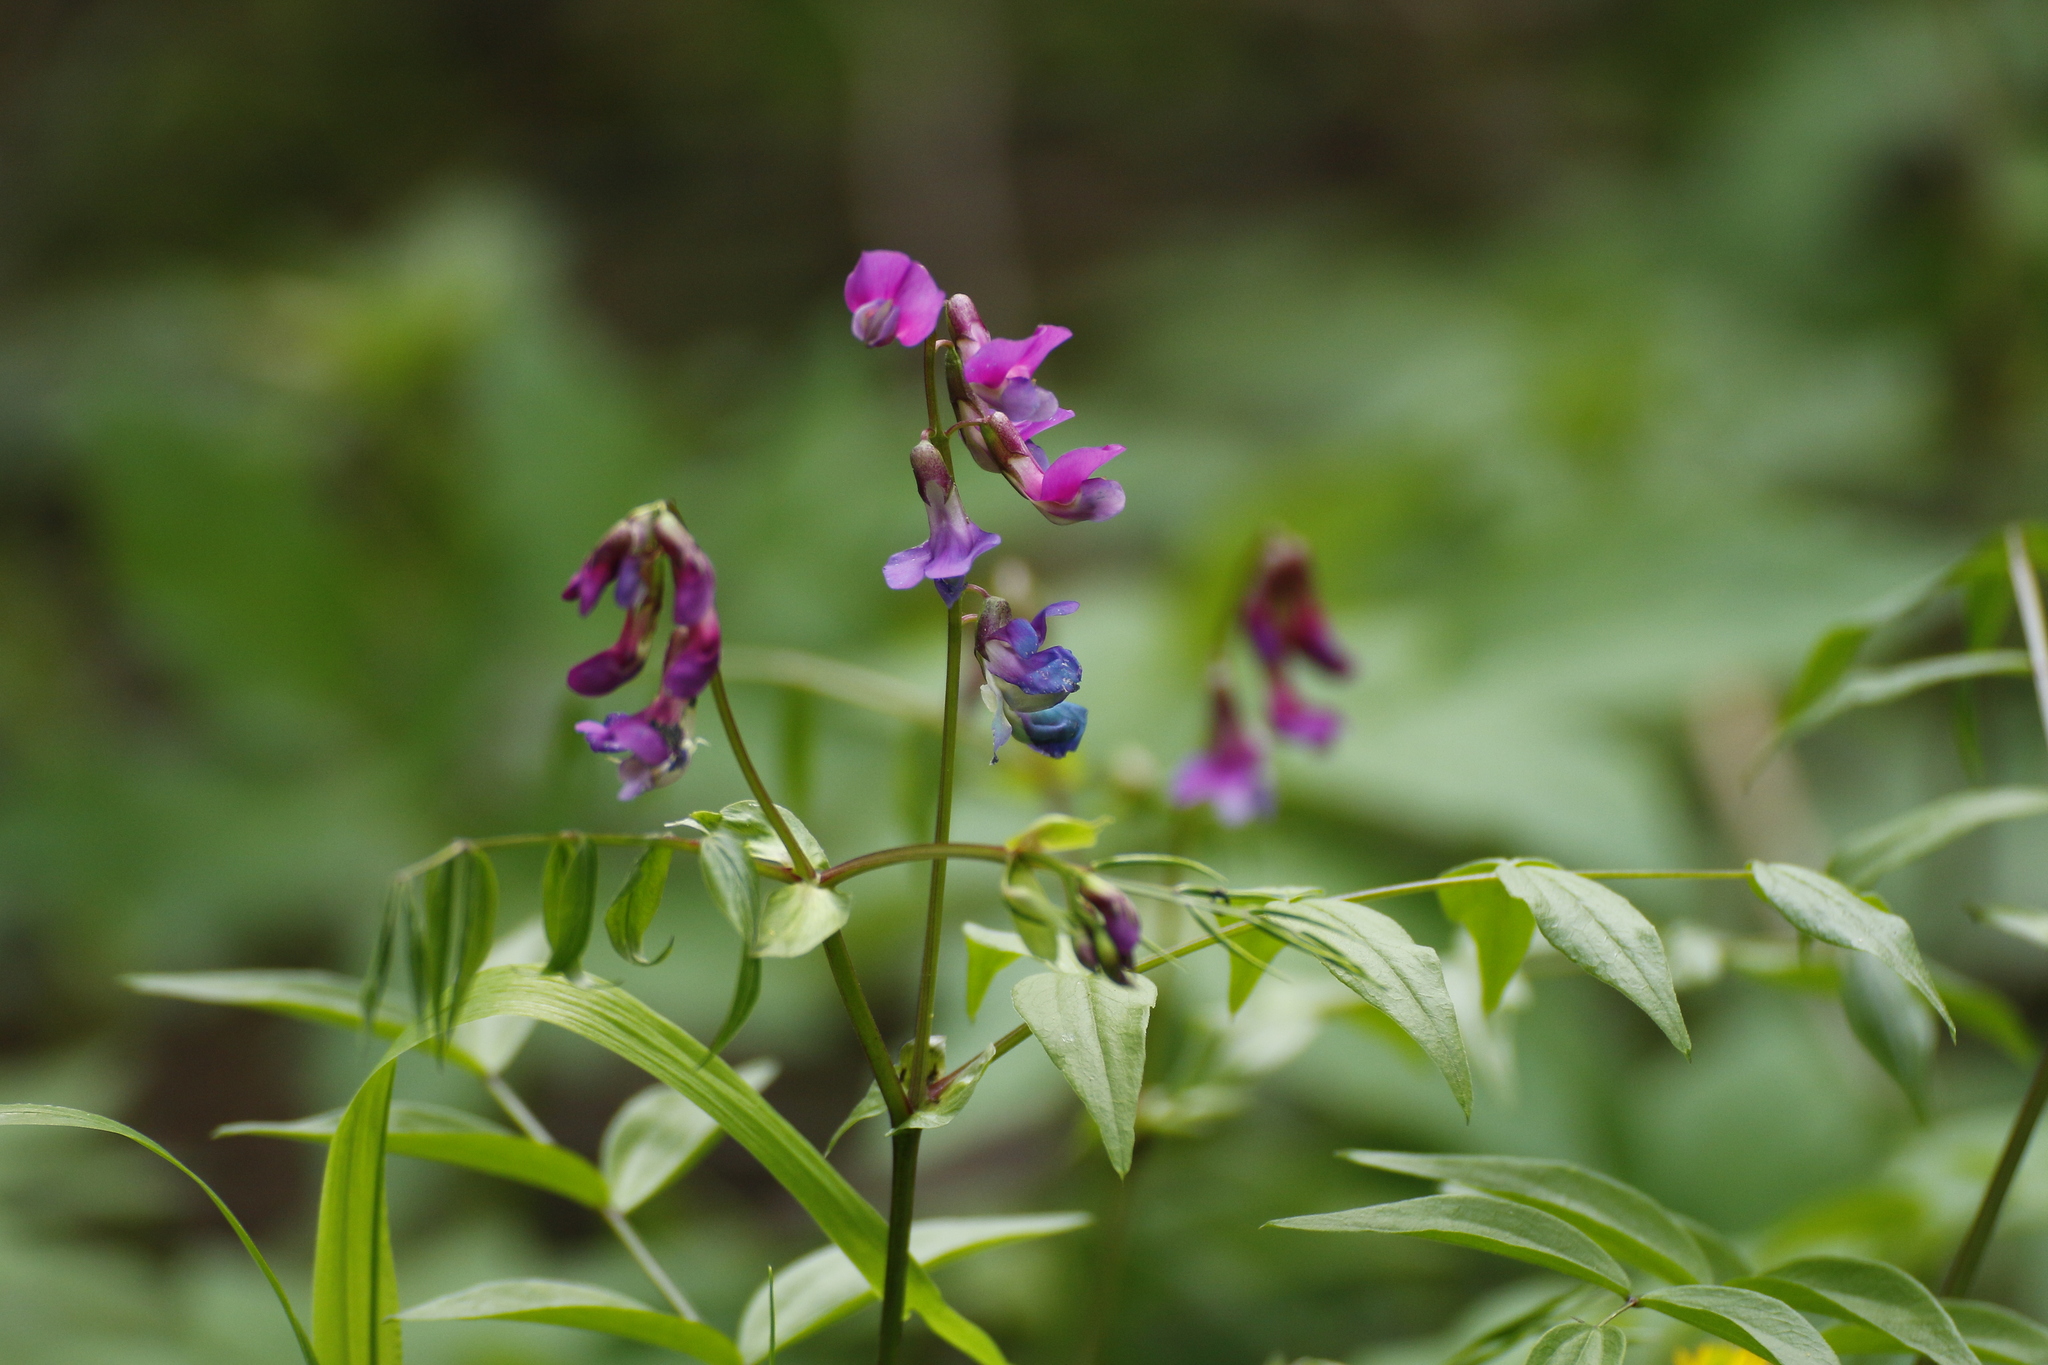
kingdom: Plantae
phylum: Tracheophyta
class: Magnoliopsida
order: Fabales
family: Fabaceae
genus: Lathyrus
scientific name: Lathyrus vernus
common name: Spring pea
